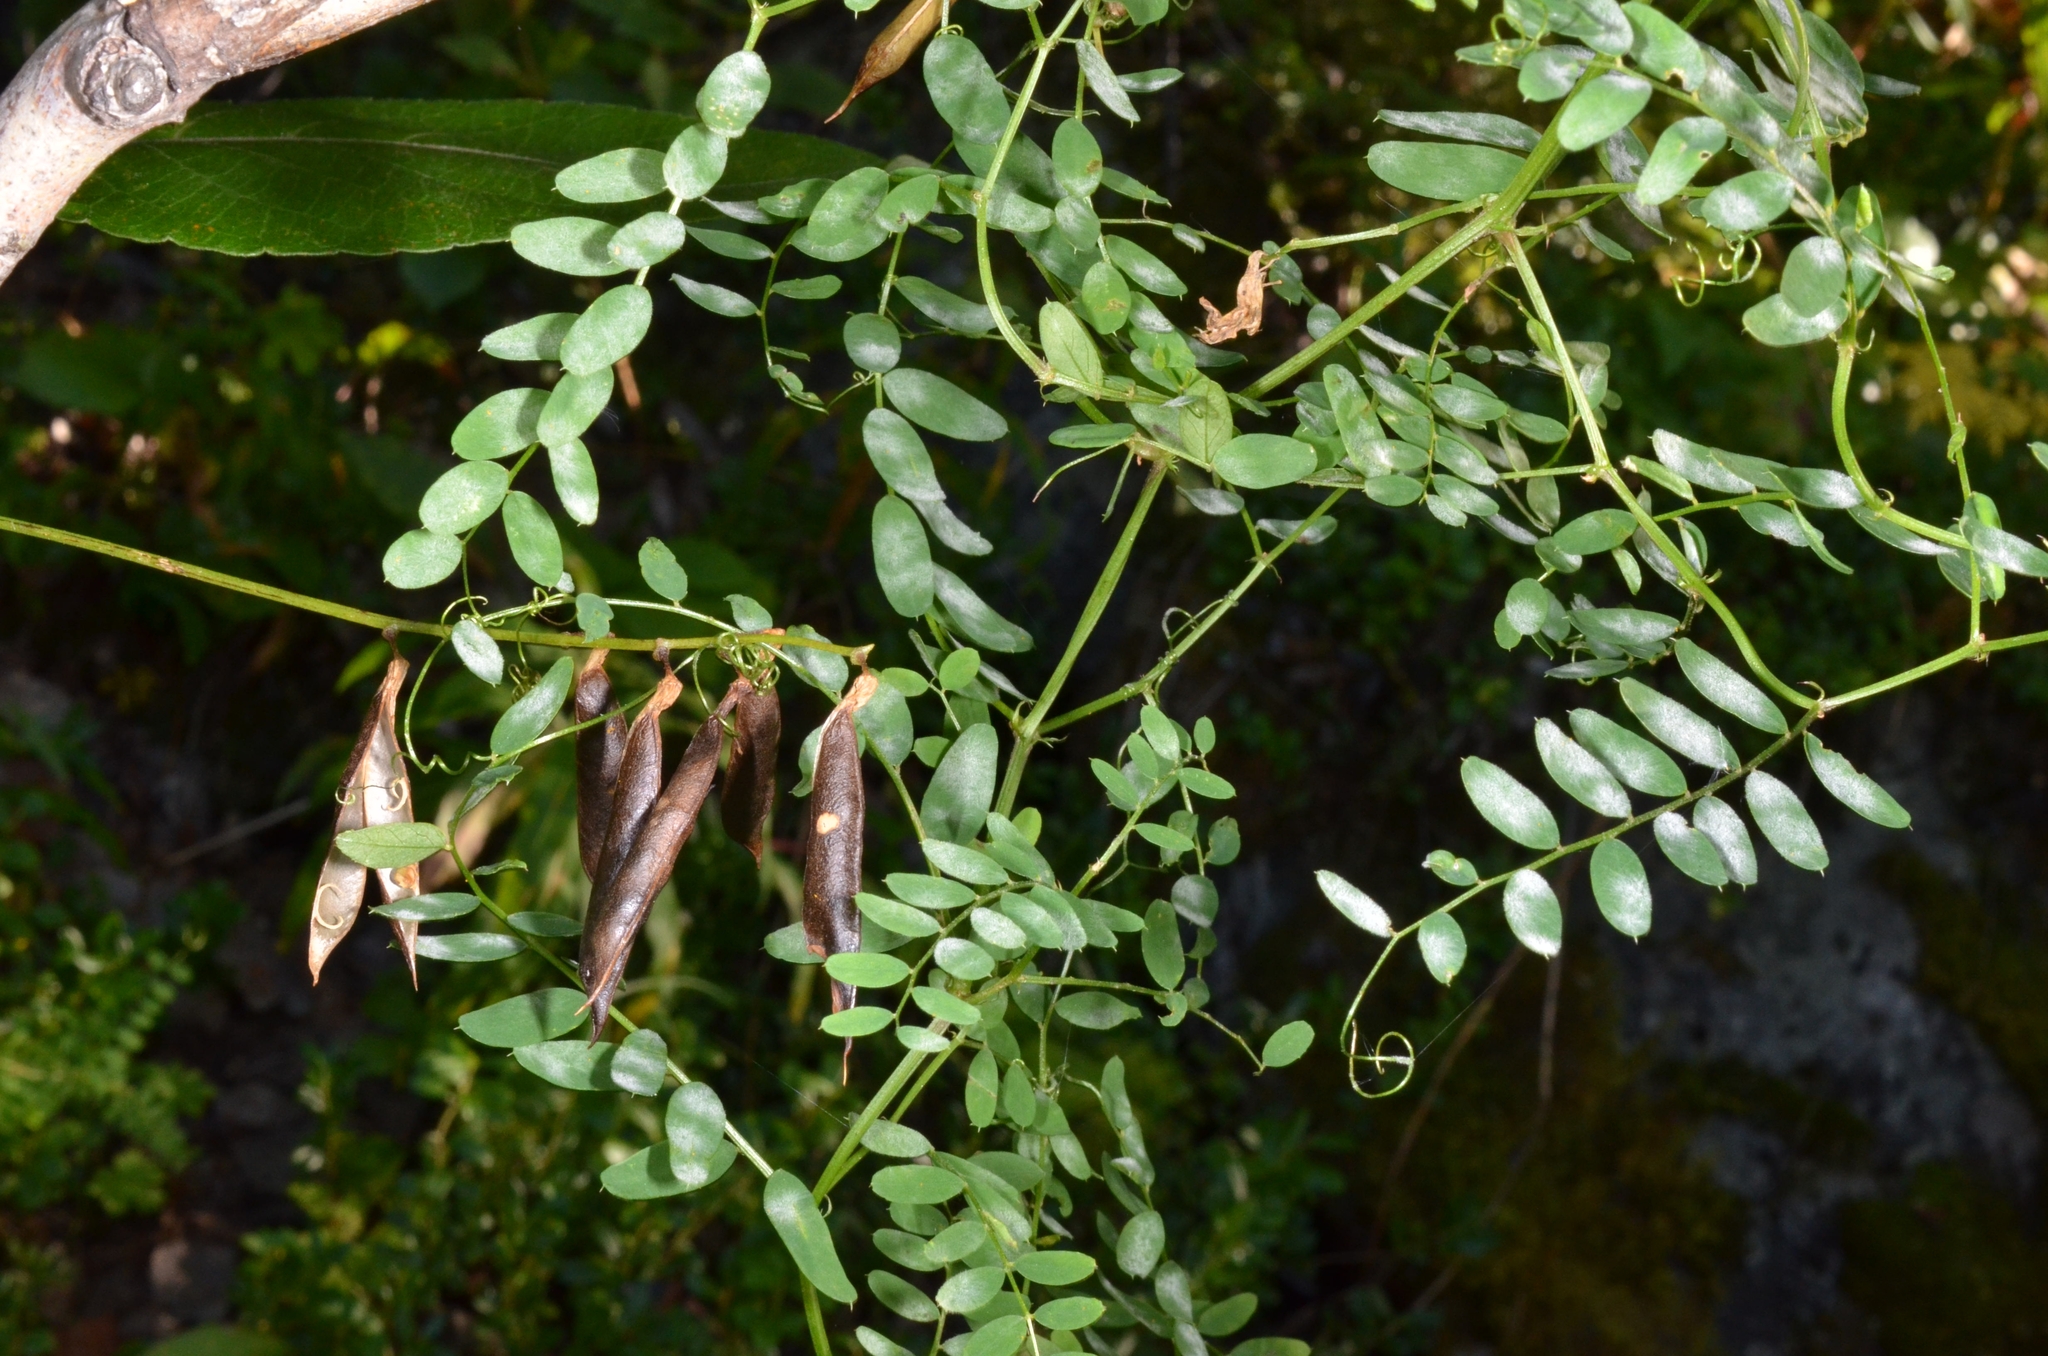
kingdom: Plantae
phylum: Tracheophyta
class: Magnoliopsida
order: Fabales
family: Fabaceae
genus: Vicia
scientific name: Vicia sylvatica
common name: Wood vetch
